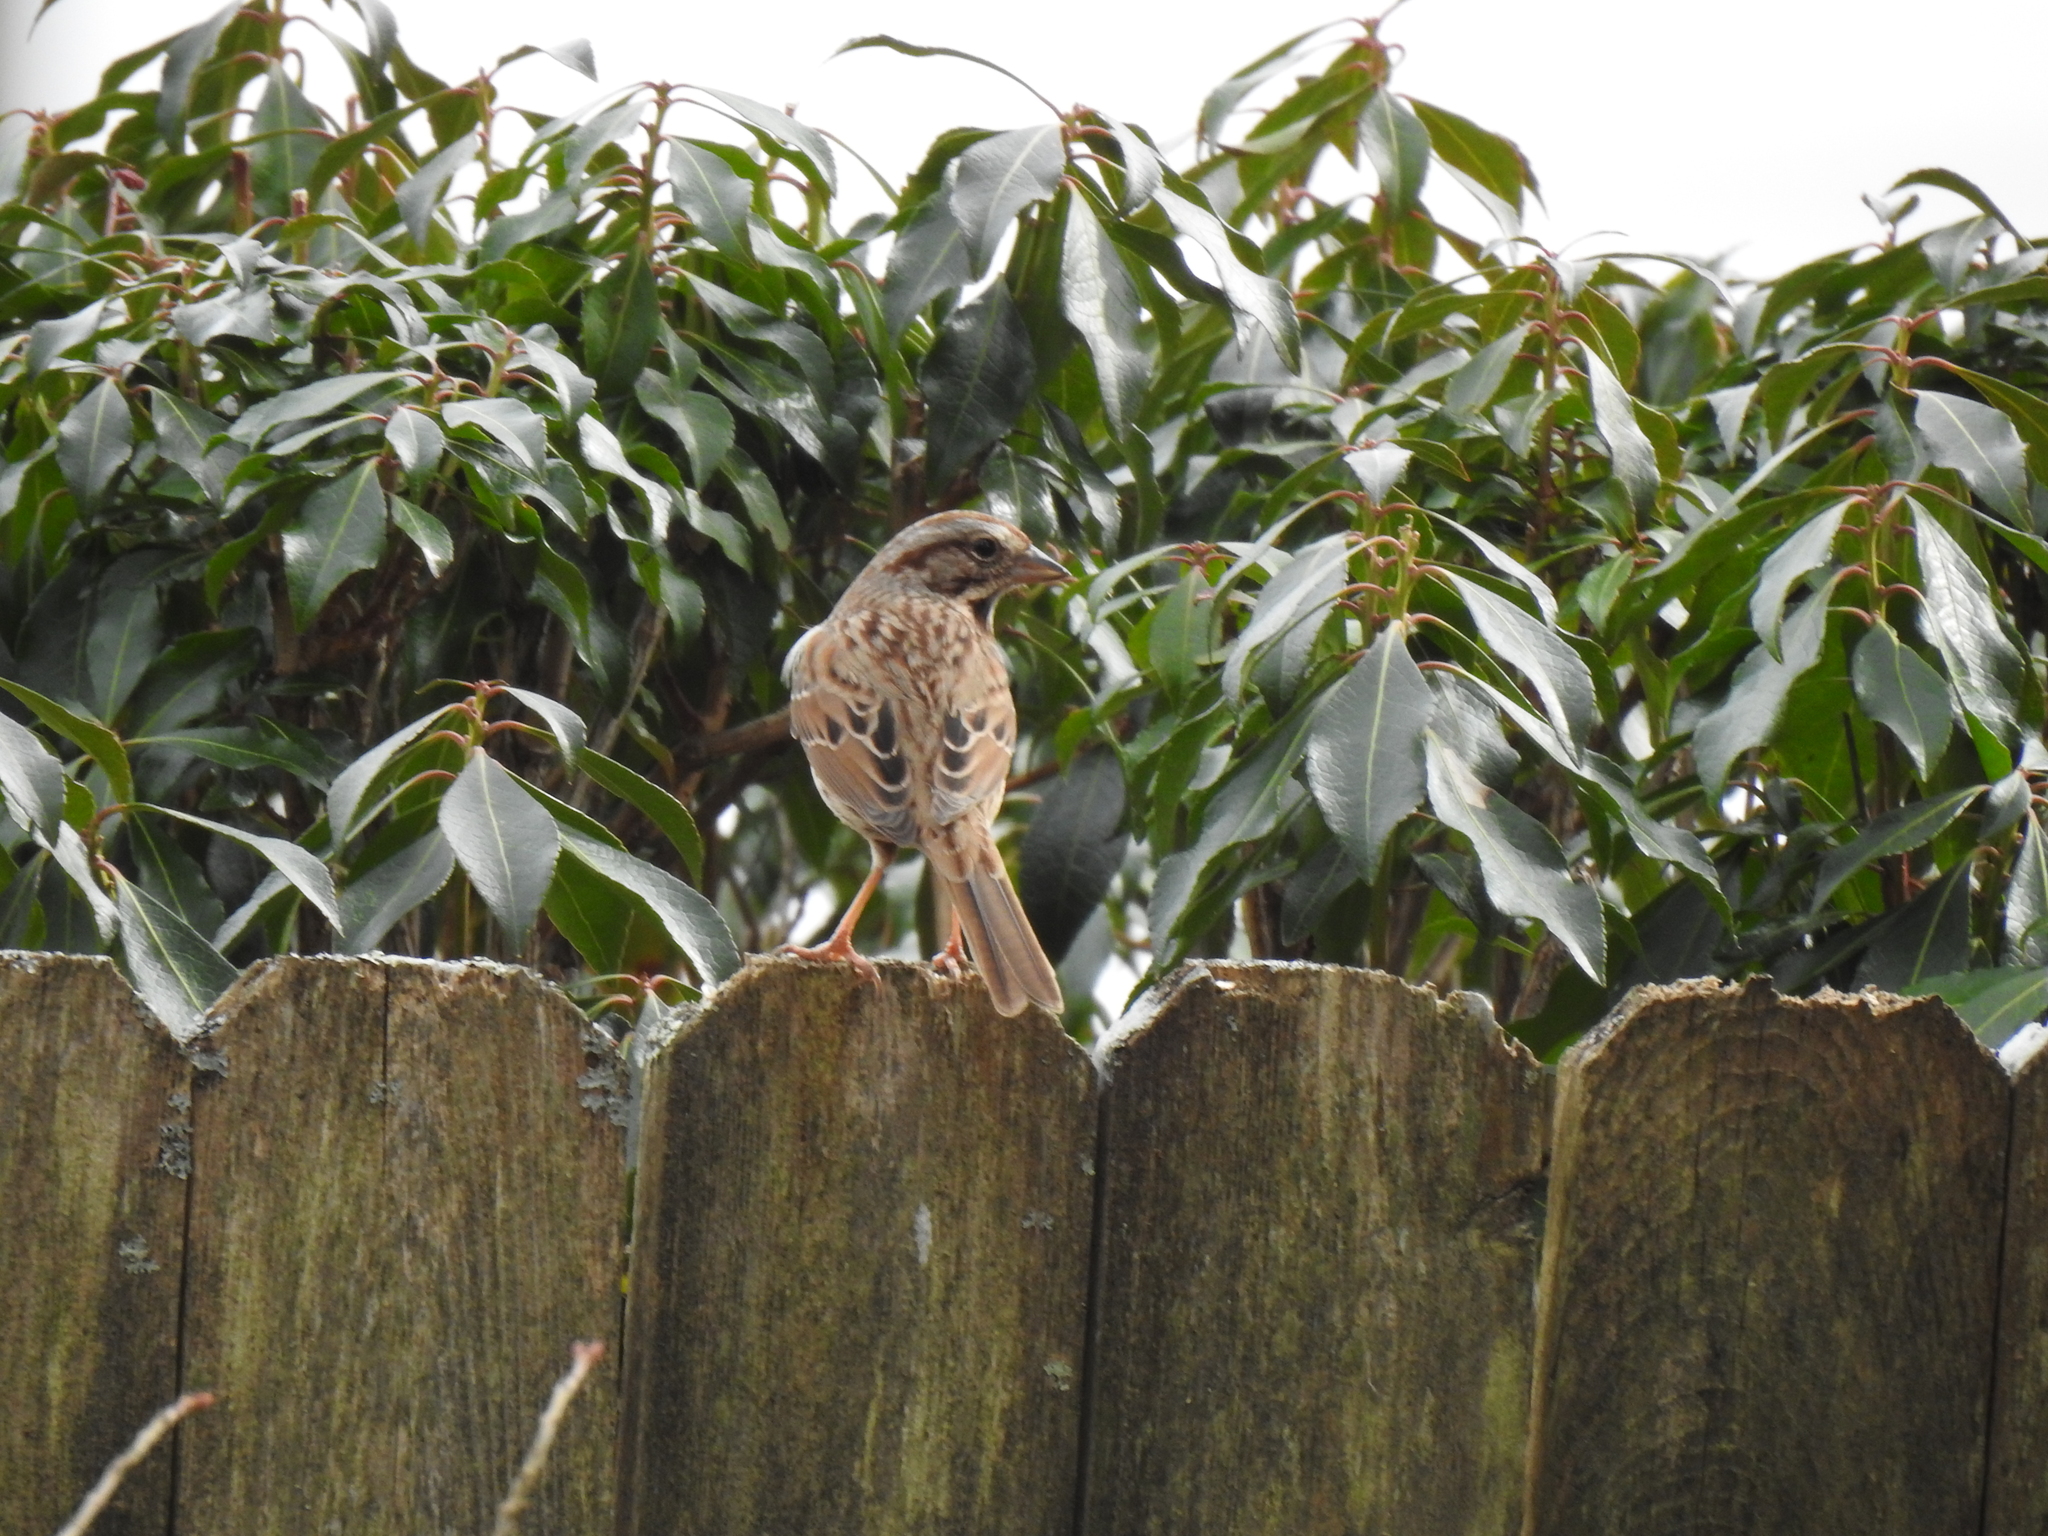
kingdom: Animalia
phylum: Chordata
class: Aves
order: Passeriformes
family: Passerellidae
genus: Melospiza
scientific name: Melospiza melodia
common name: Song sparrow
